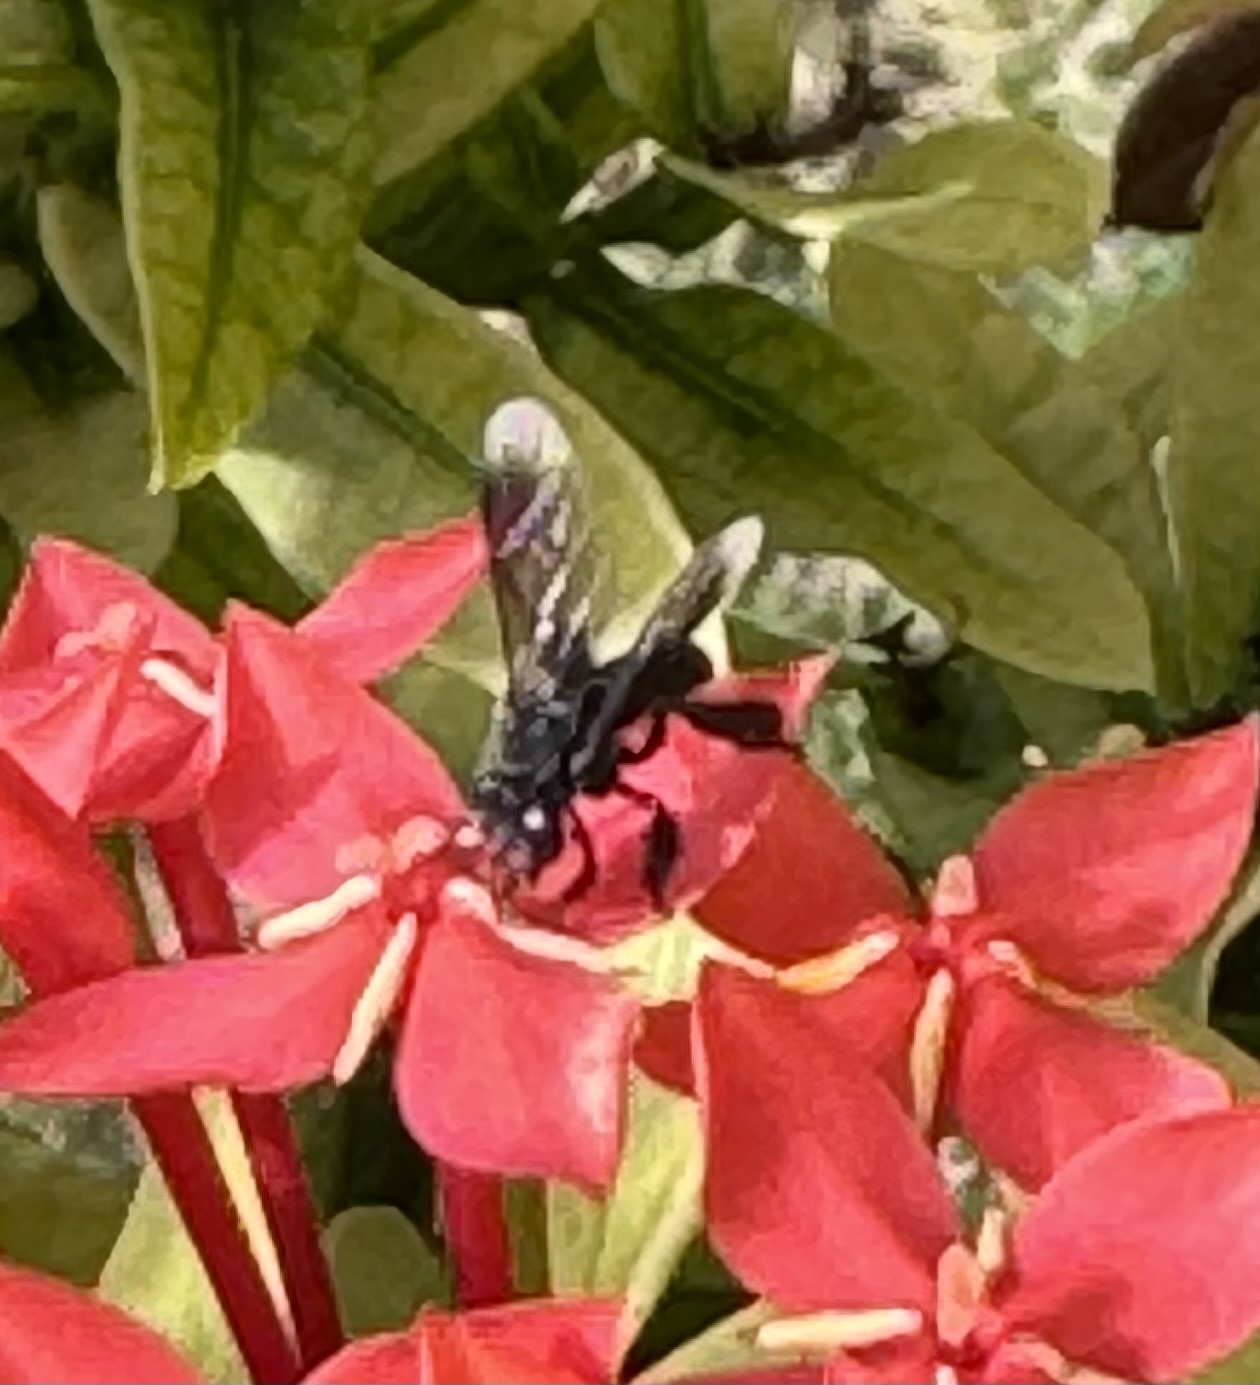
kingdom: Animalia
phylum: Arthropoda
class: Insecta
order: Hymenoptera
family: Apidae
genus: Frieseomelitta
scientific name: Frieseomelitta nigra
